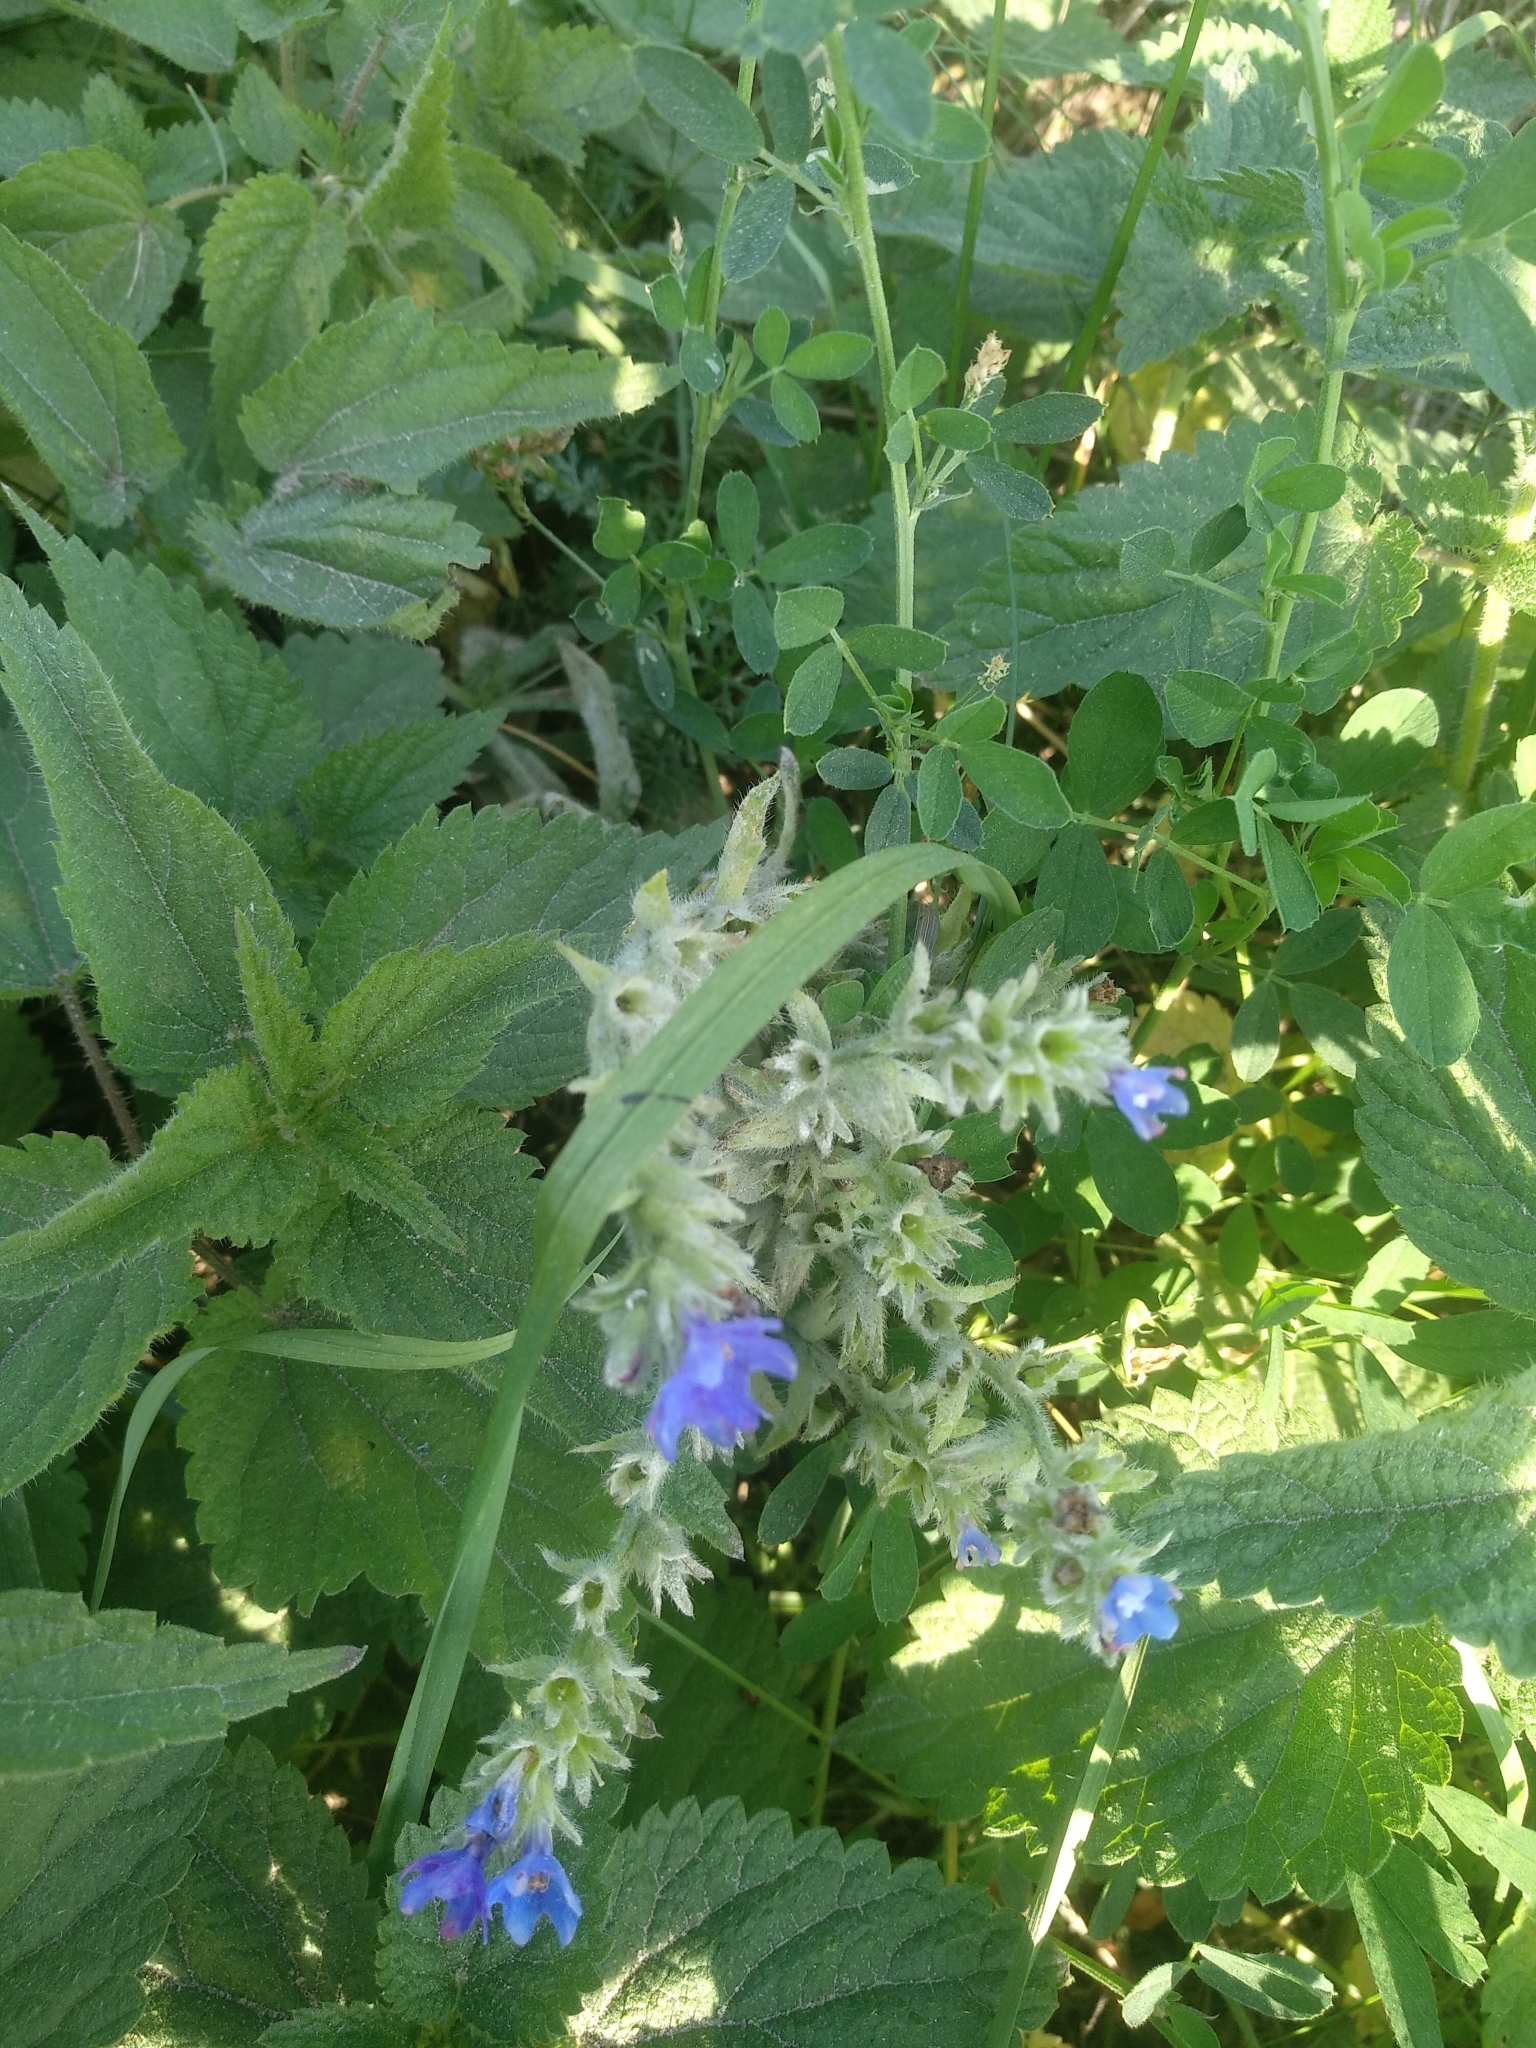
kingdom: Plantae
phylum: Tracheophyta
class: Magnoliopsida
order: Boraginales
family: Boraginaceae
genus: Anchusa
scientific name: Anchusa officinalis
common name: Alkanet
